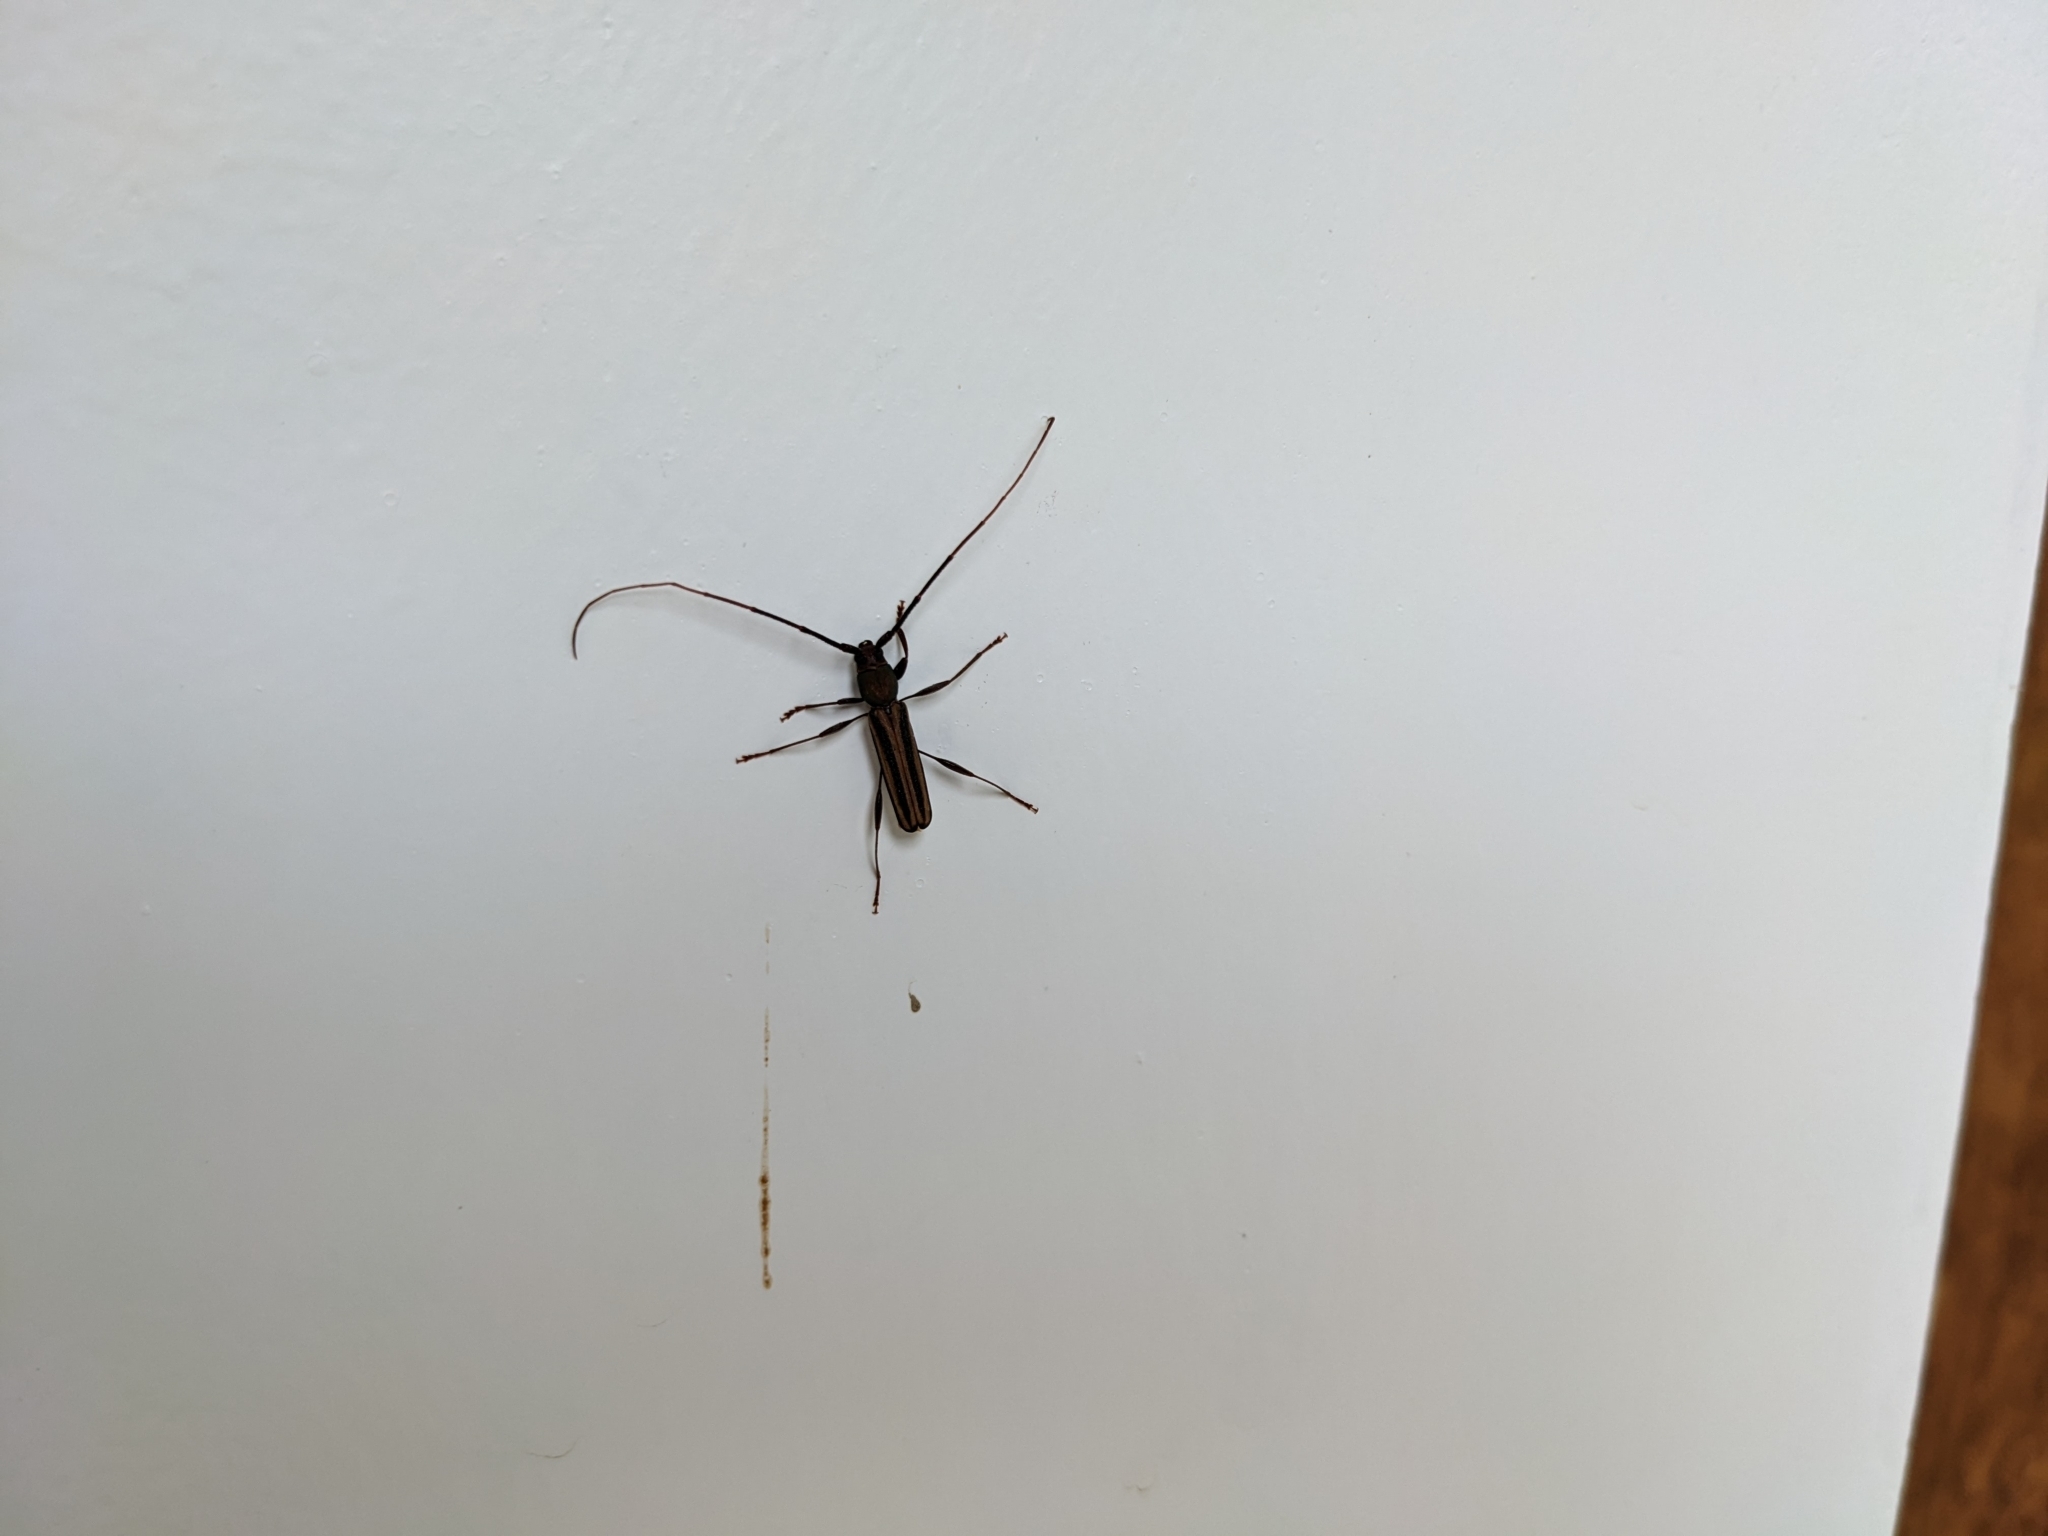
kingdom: Animalia
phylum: Arthropoda
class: Insecta
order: Coleoptera
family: Cerambycidae
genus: Xystrocera
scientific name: Xystrocera dispar
